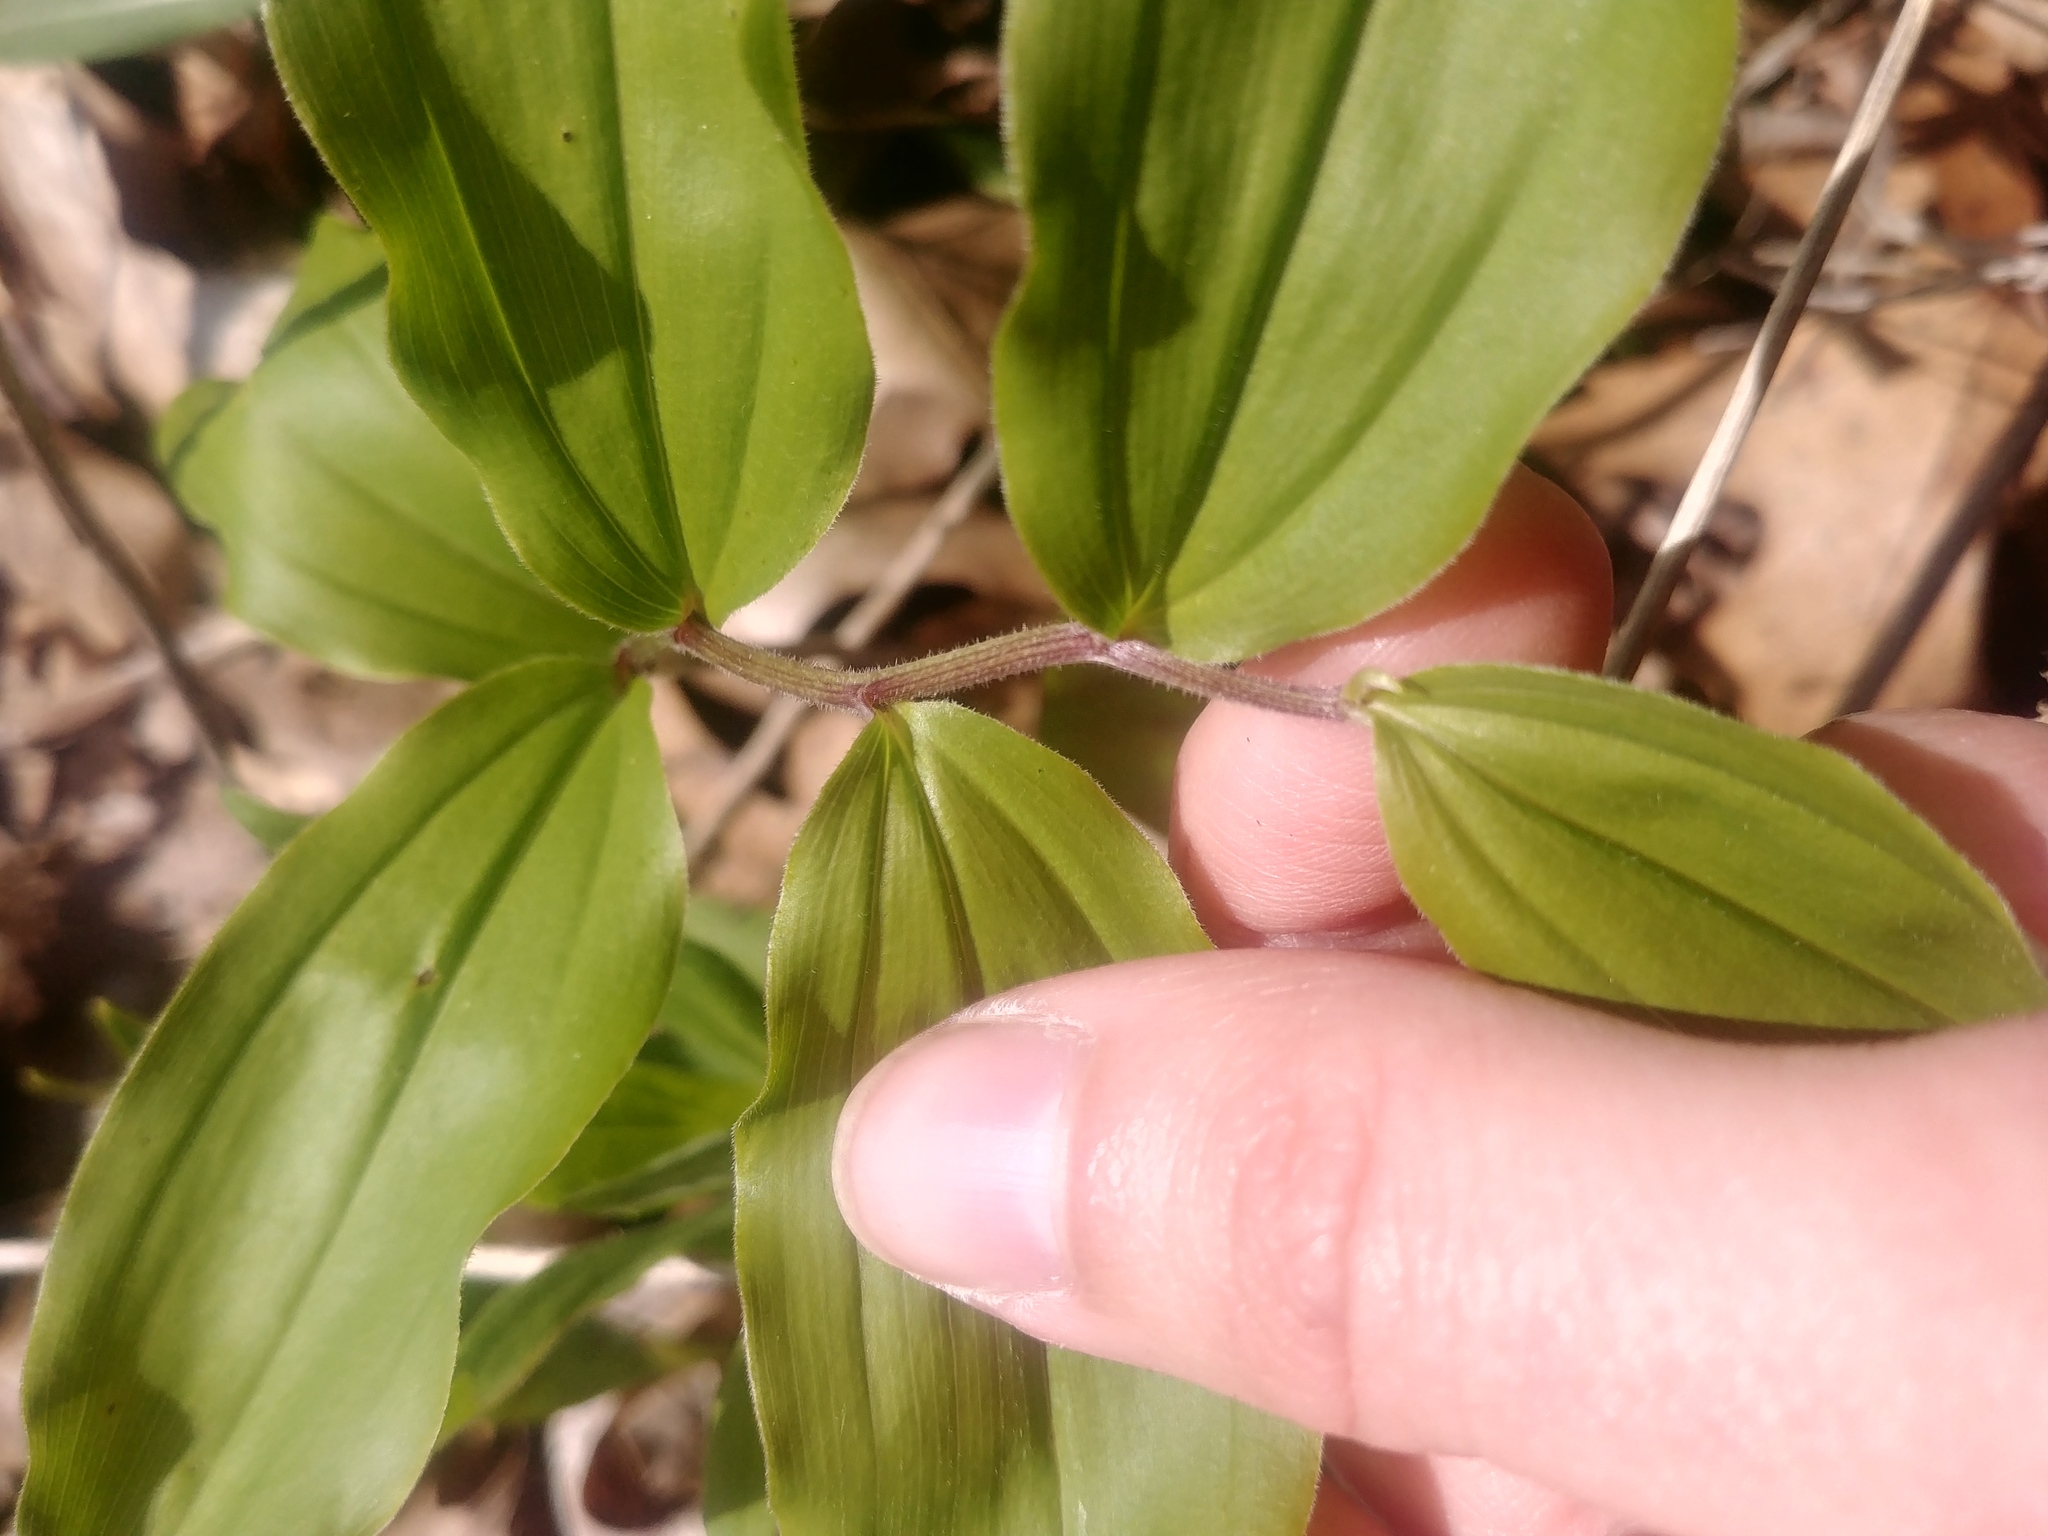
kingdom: Plantae
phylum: Tracheophyta
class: Liliopsida
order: Asparagales
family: Asparagaceae
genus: Maianthemum
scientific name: Maianthemum racemosum
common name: False spikenard
